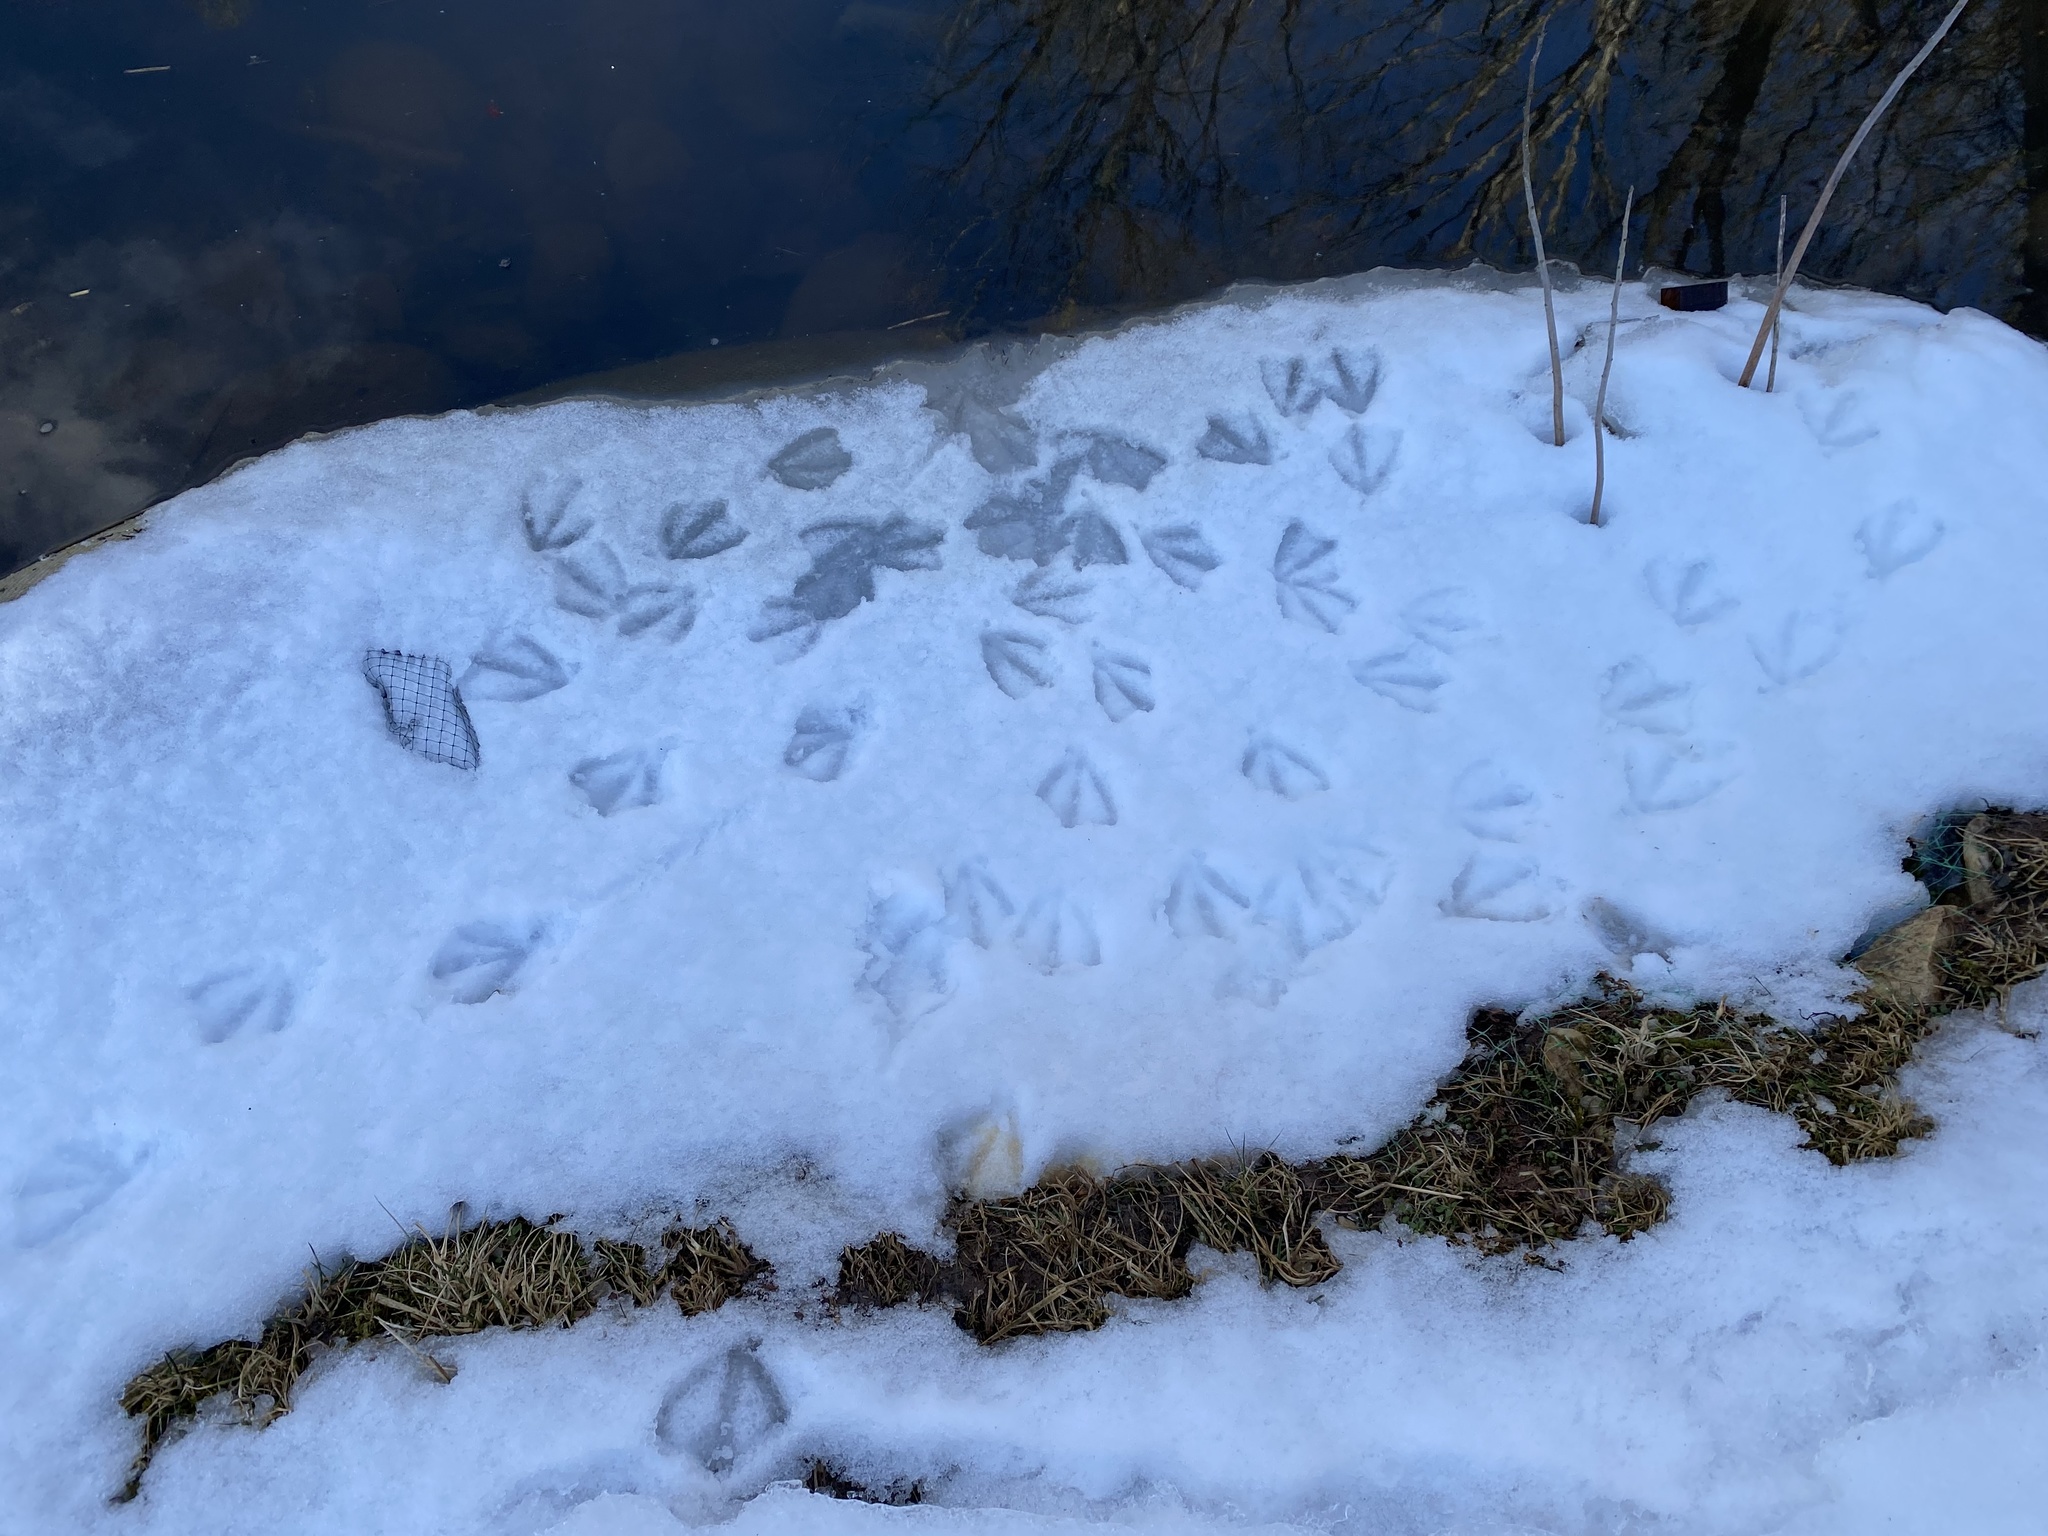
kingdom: Animalia
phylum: Chordata
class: Aves
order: Anseriformes
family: Anatidae
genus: Anas
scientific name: Anas platyrhynchos
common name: Mallard
